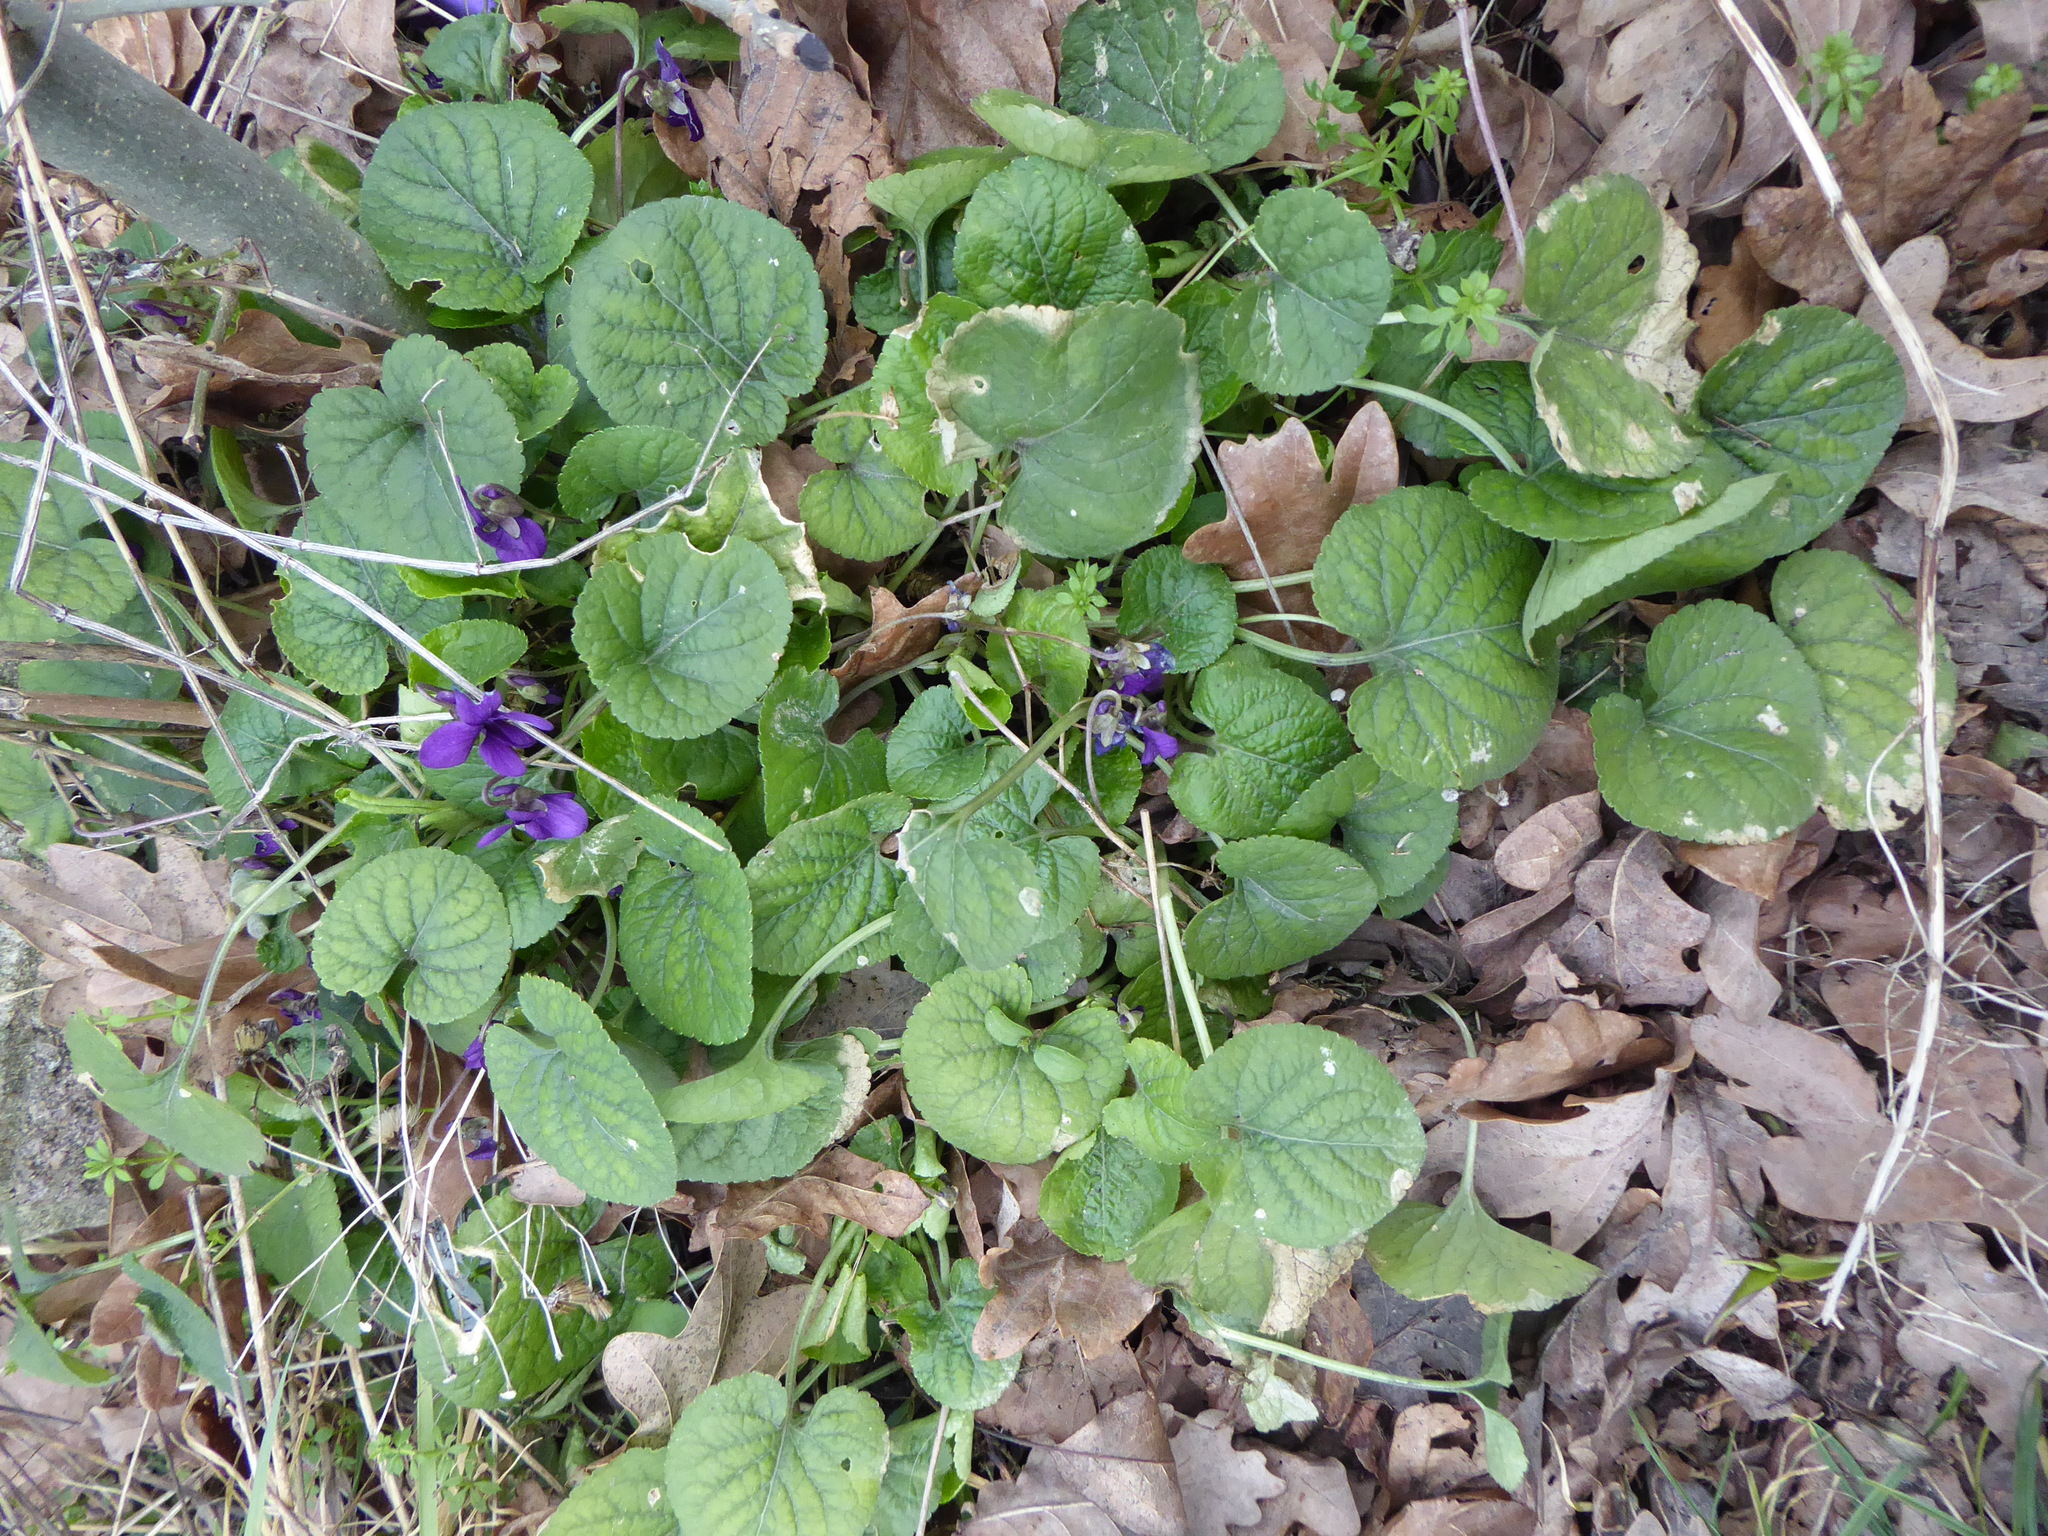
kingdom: Plantae
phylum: Tracheophyta
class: Magnoliopsida
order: Malpighiales
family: Violaceae
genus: Viola
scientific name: Viola odorata
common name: Sweet violet
